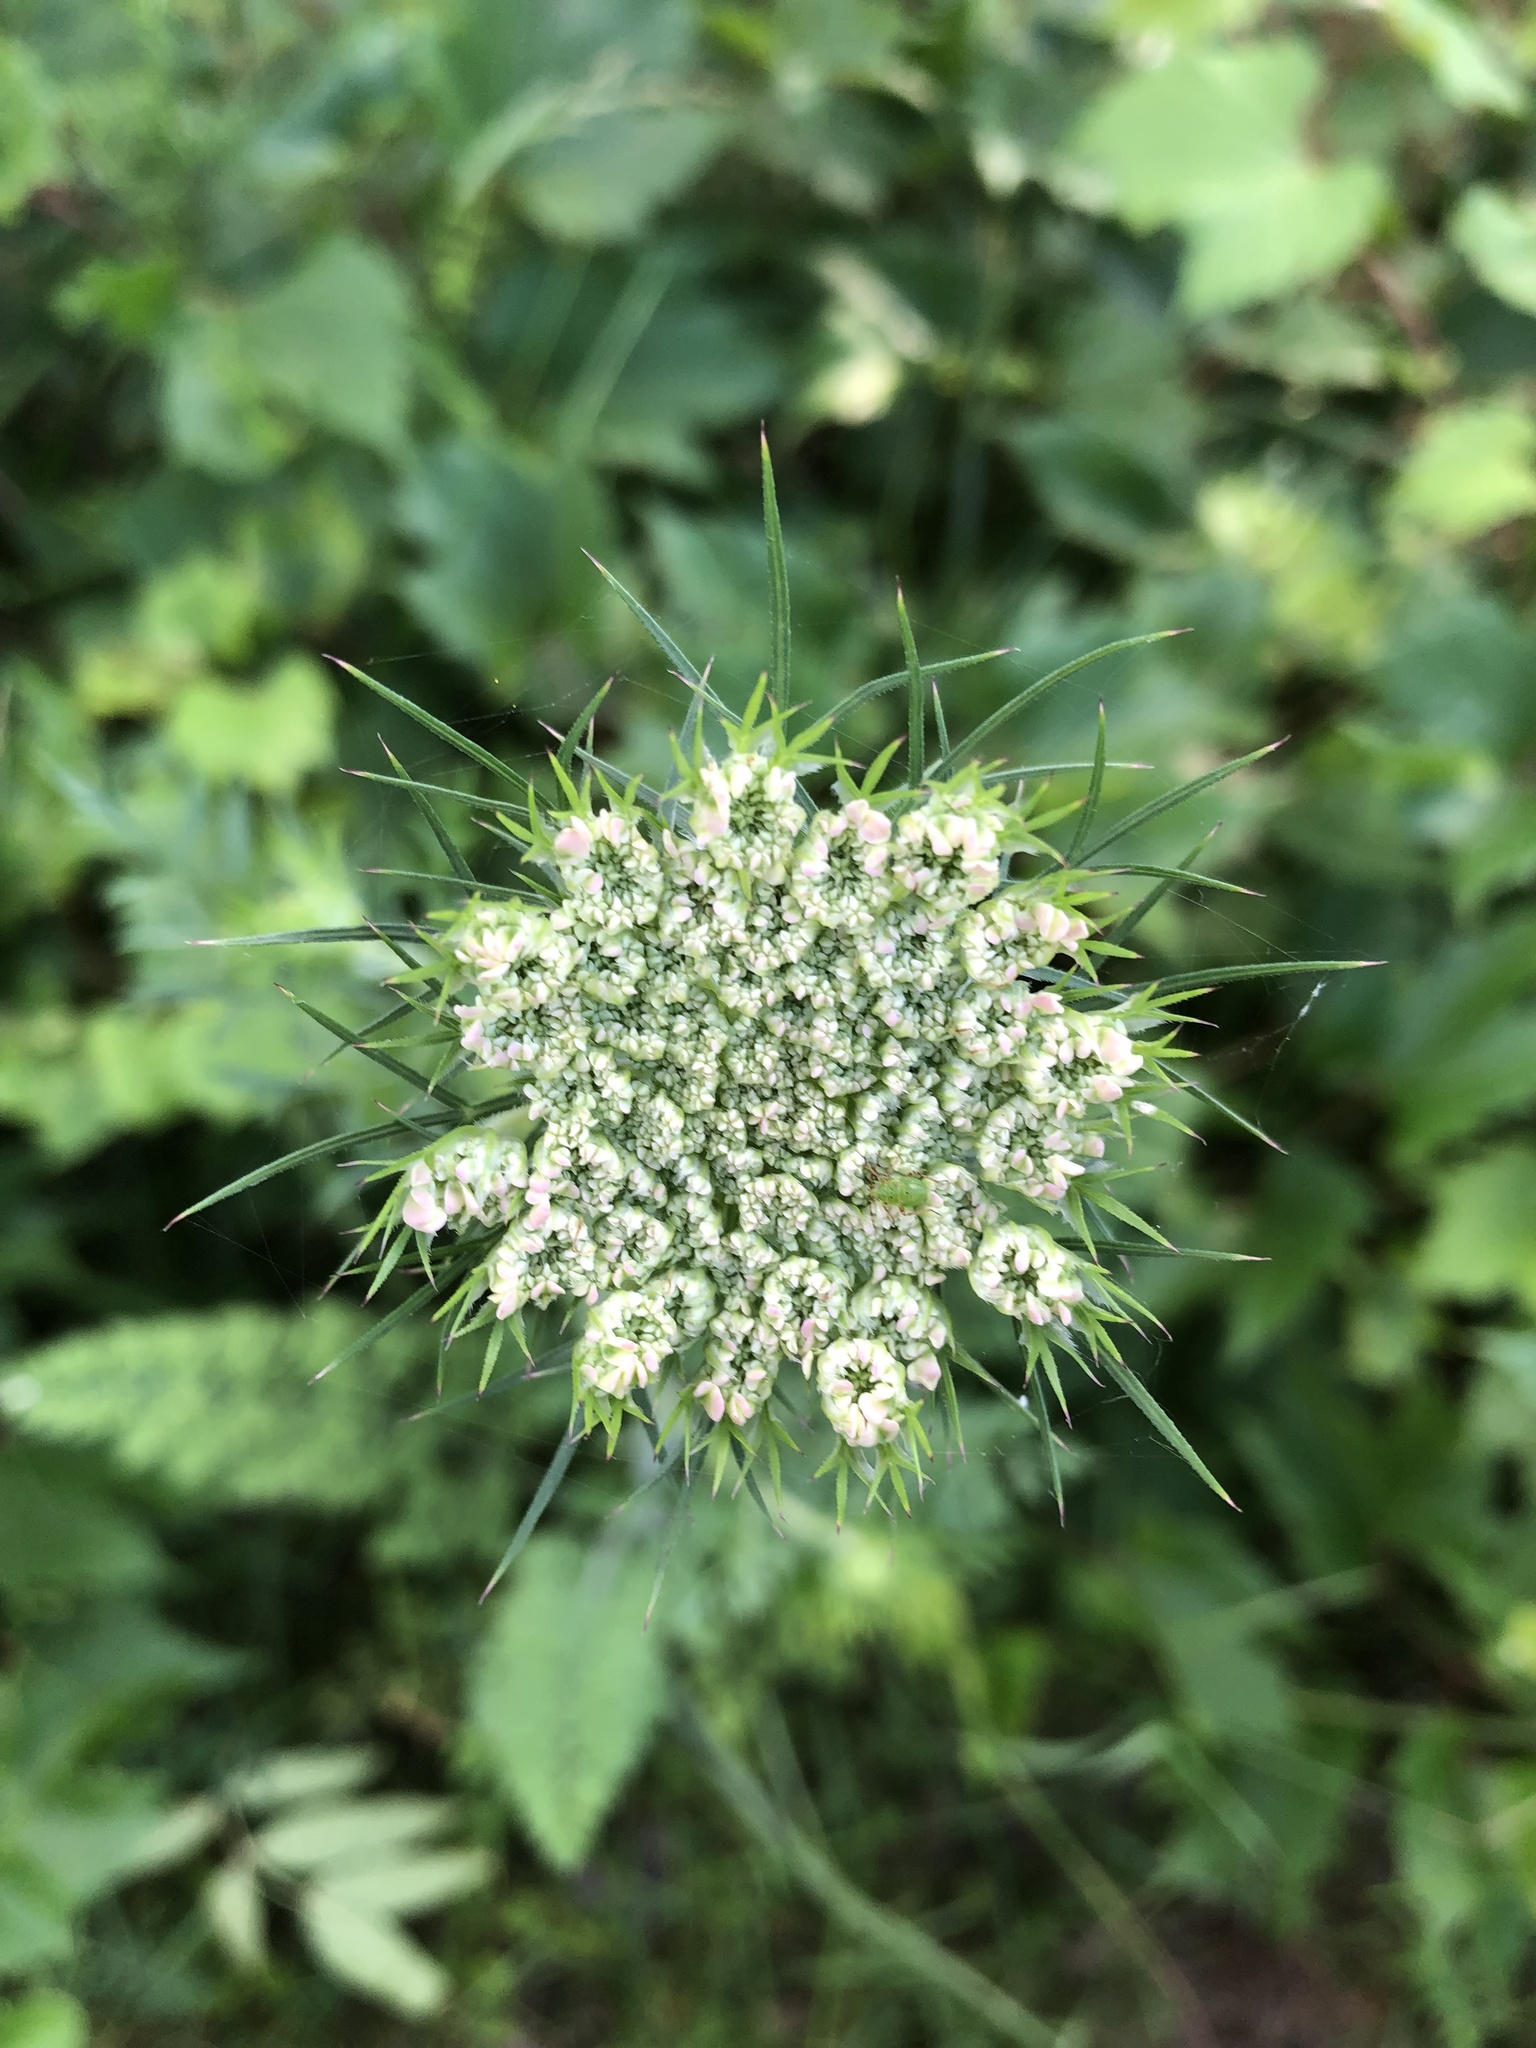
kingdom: Plantae
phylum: Tracheophyta
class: Magnoliopsida
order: Apiales
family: Apiaceae
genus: Daucus
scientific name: Daucus carota
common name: Wild carrot
